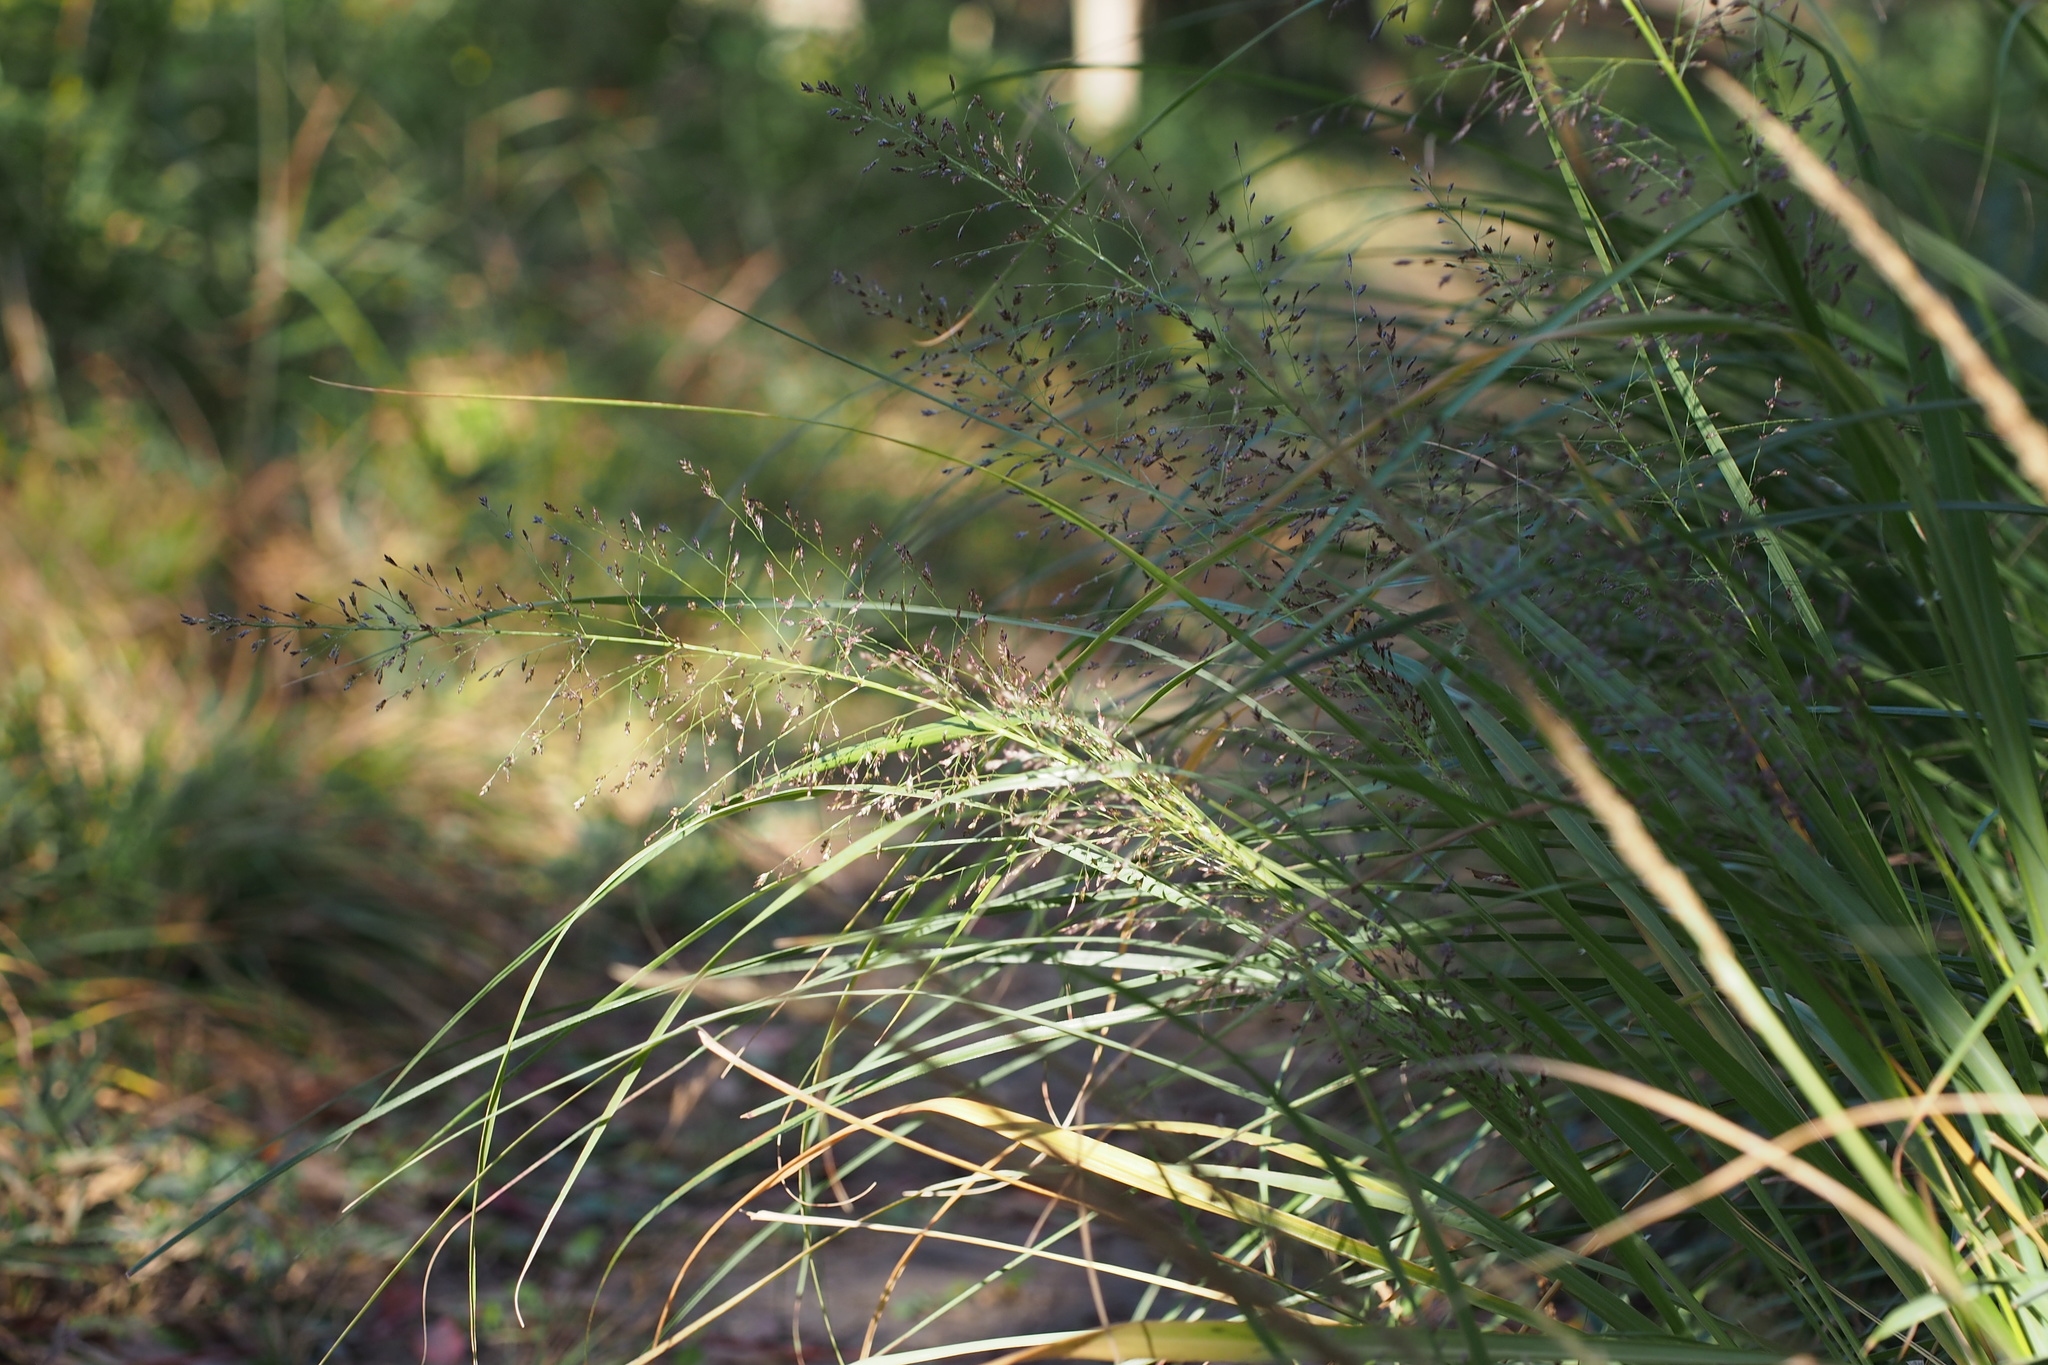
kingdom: Plantae
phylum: Tracheophyta
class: Liliopsida
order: Poales
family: Poaceae
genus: Eragrostis
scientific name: Eragrostis ferruginea
